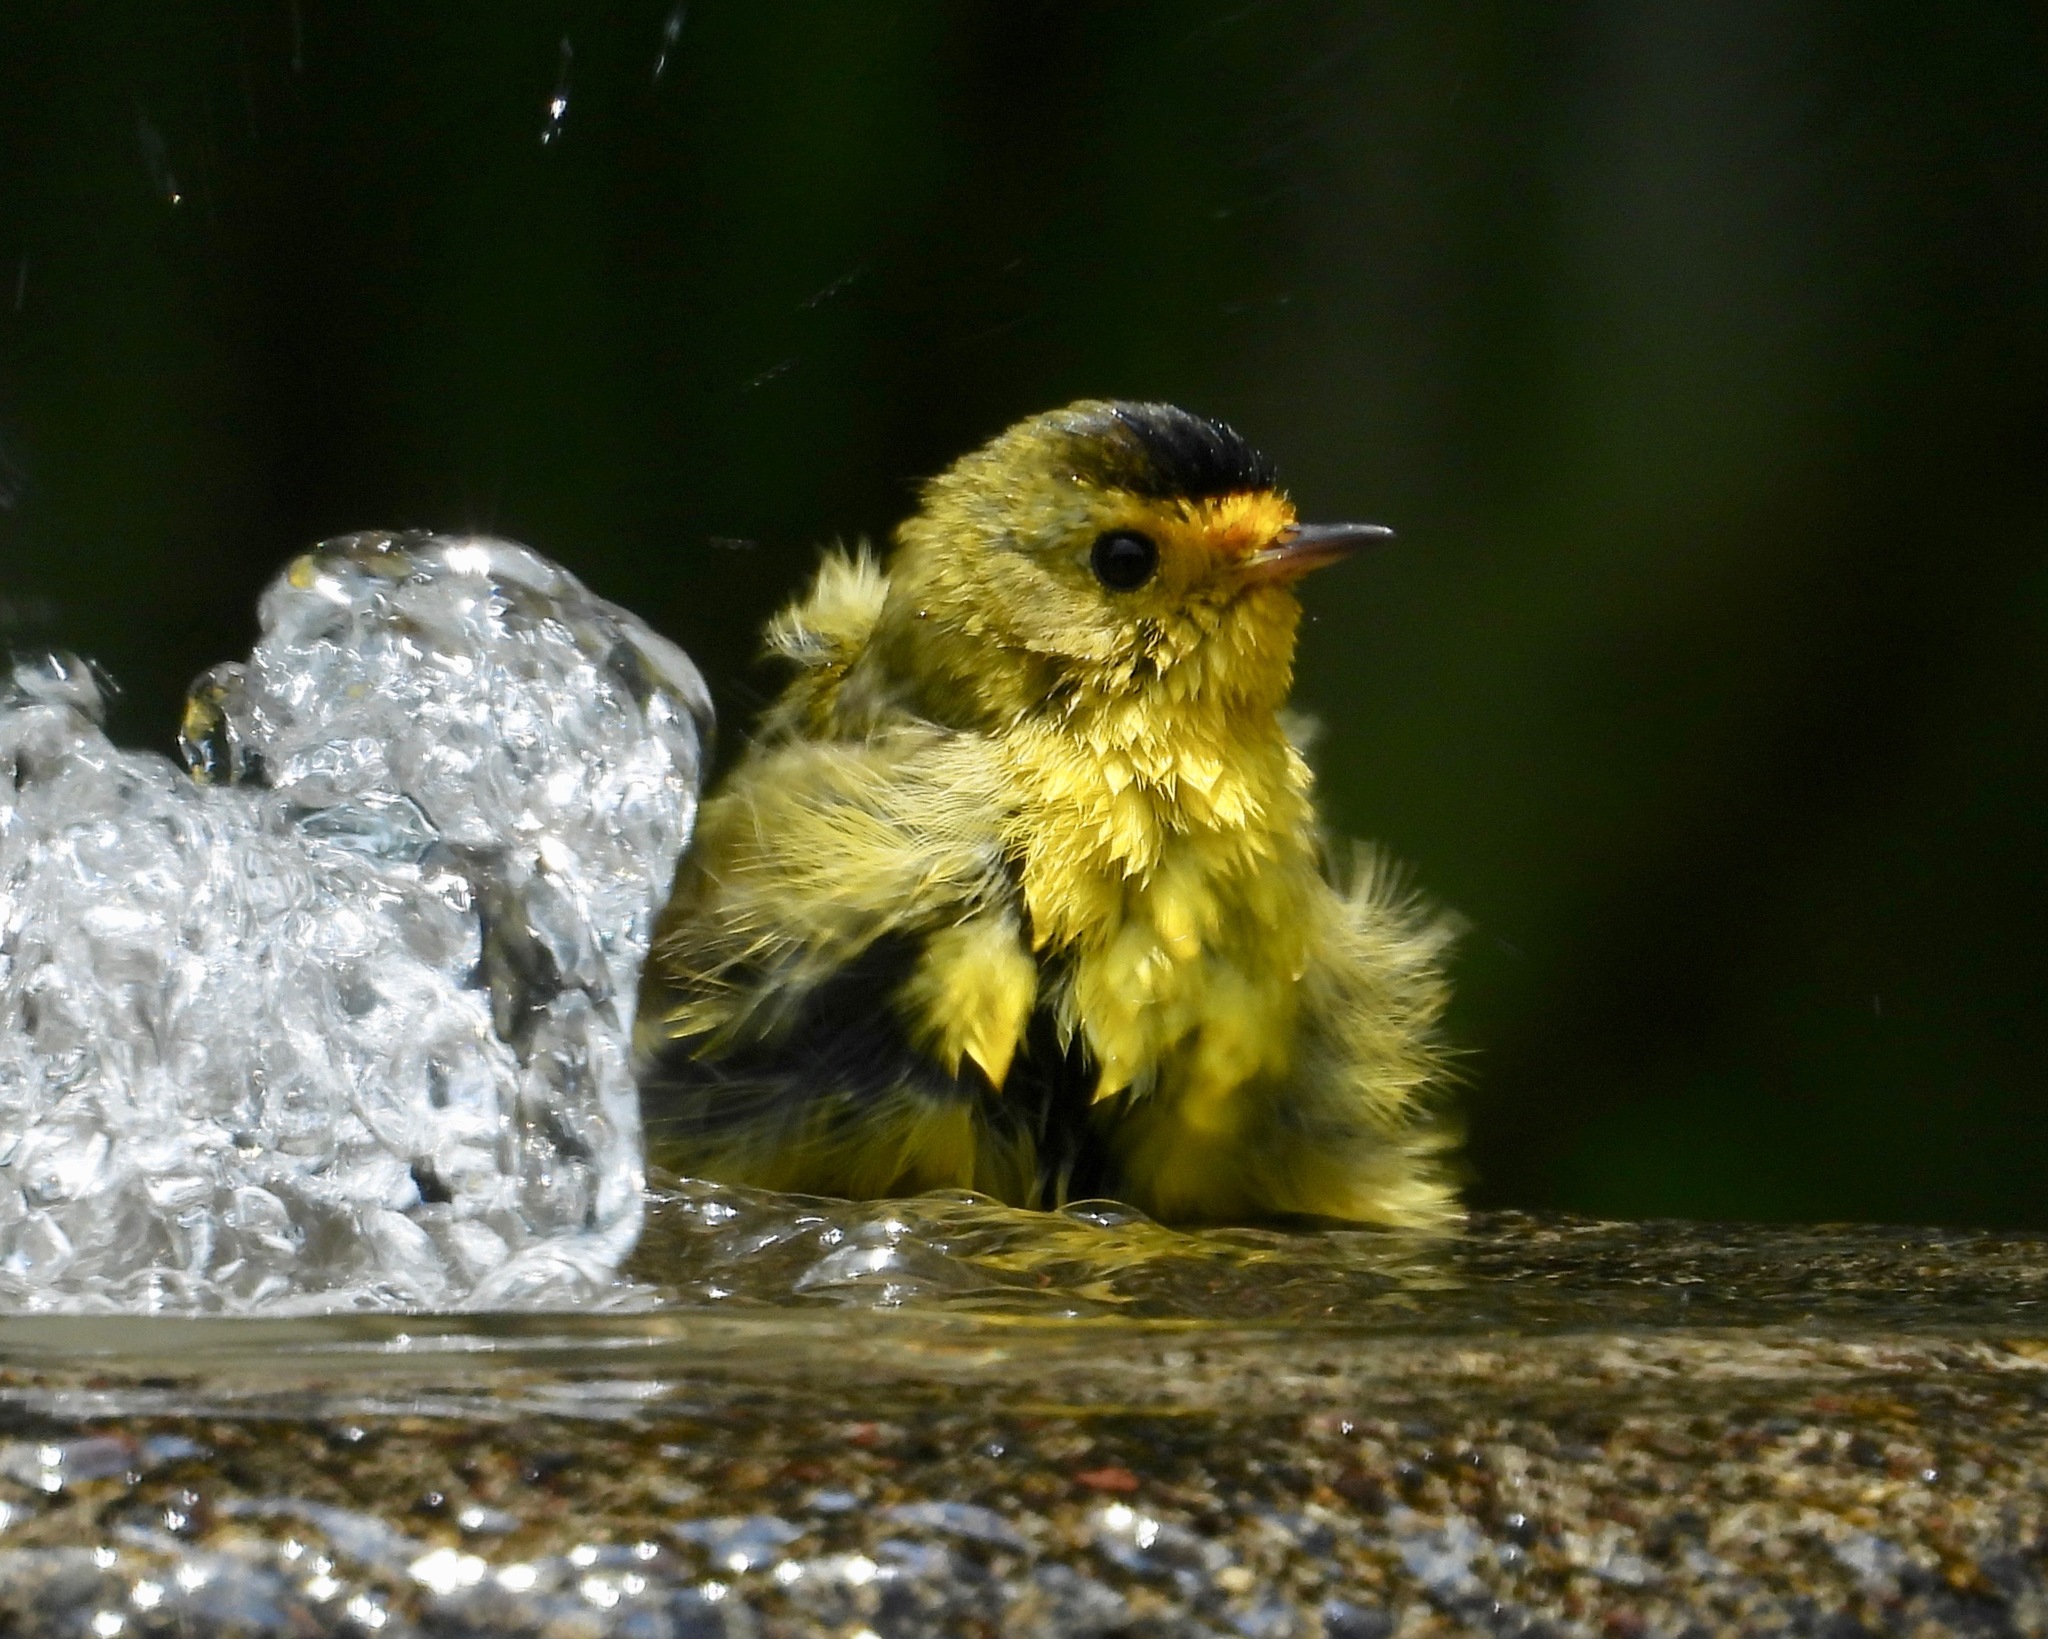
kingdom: Animalia
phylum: Chordata
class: Aves
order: Passeriformes
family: Parulidae
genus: Cardellina
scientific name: Cardellina pusilla
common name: Wilson's warbler
